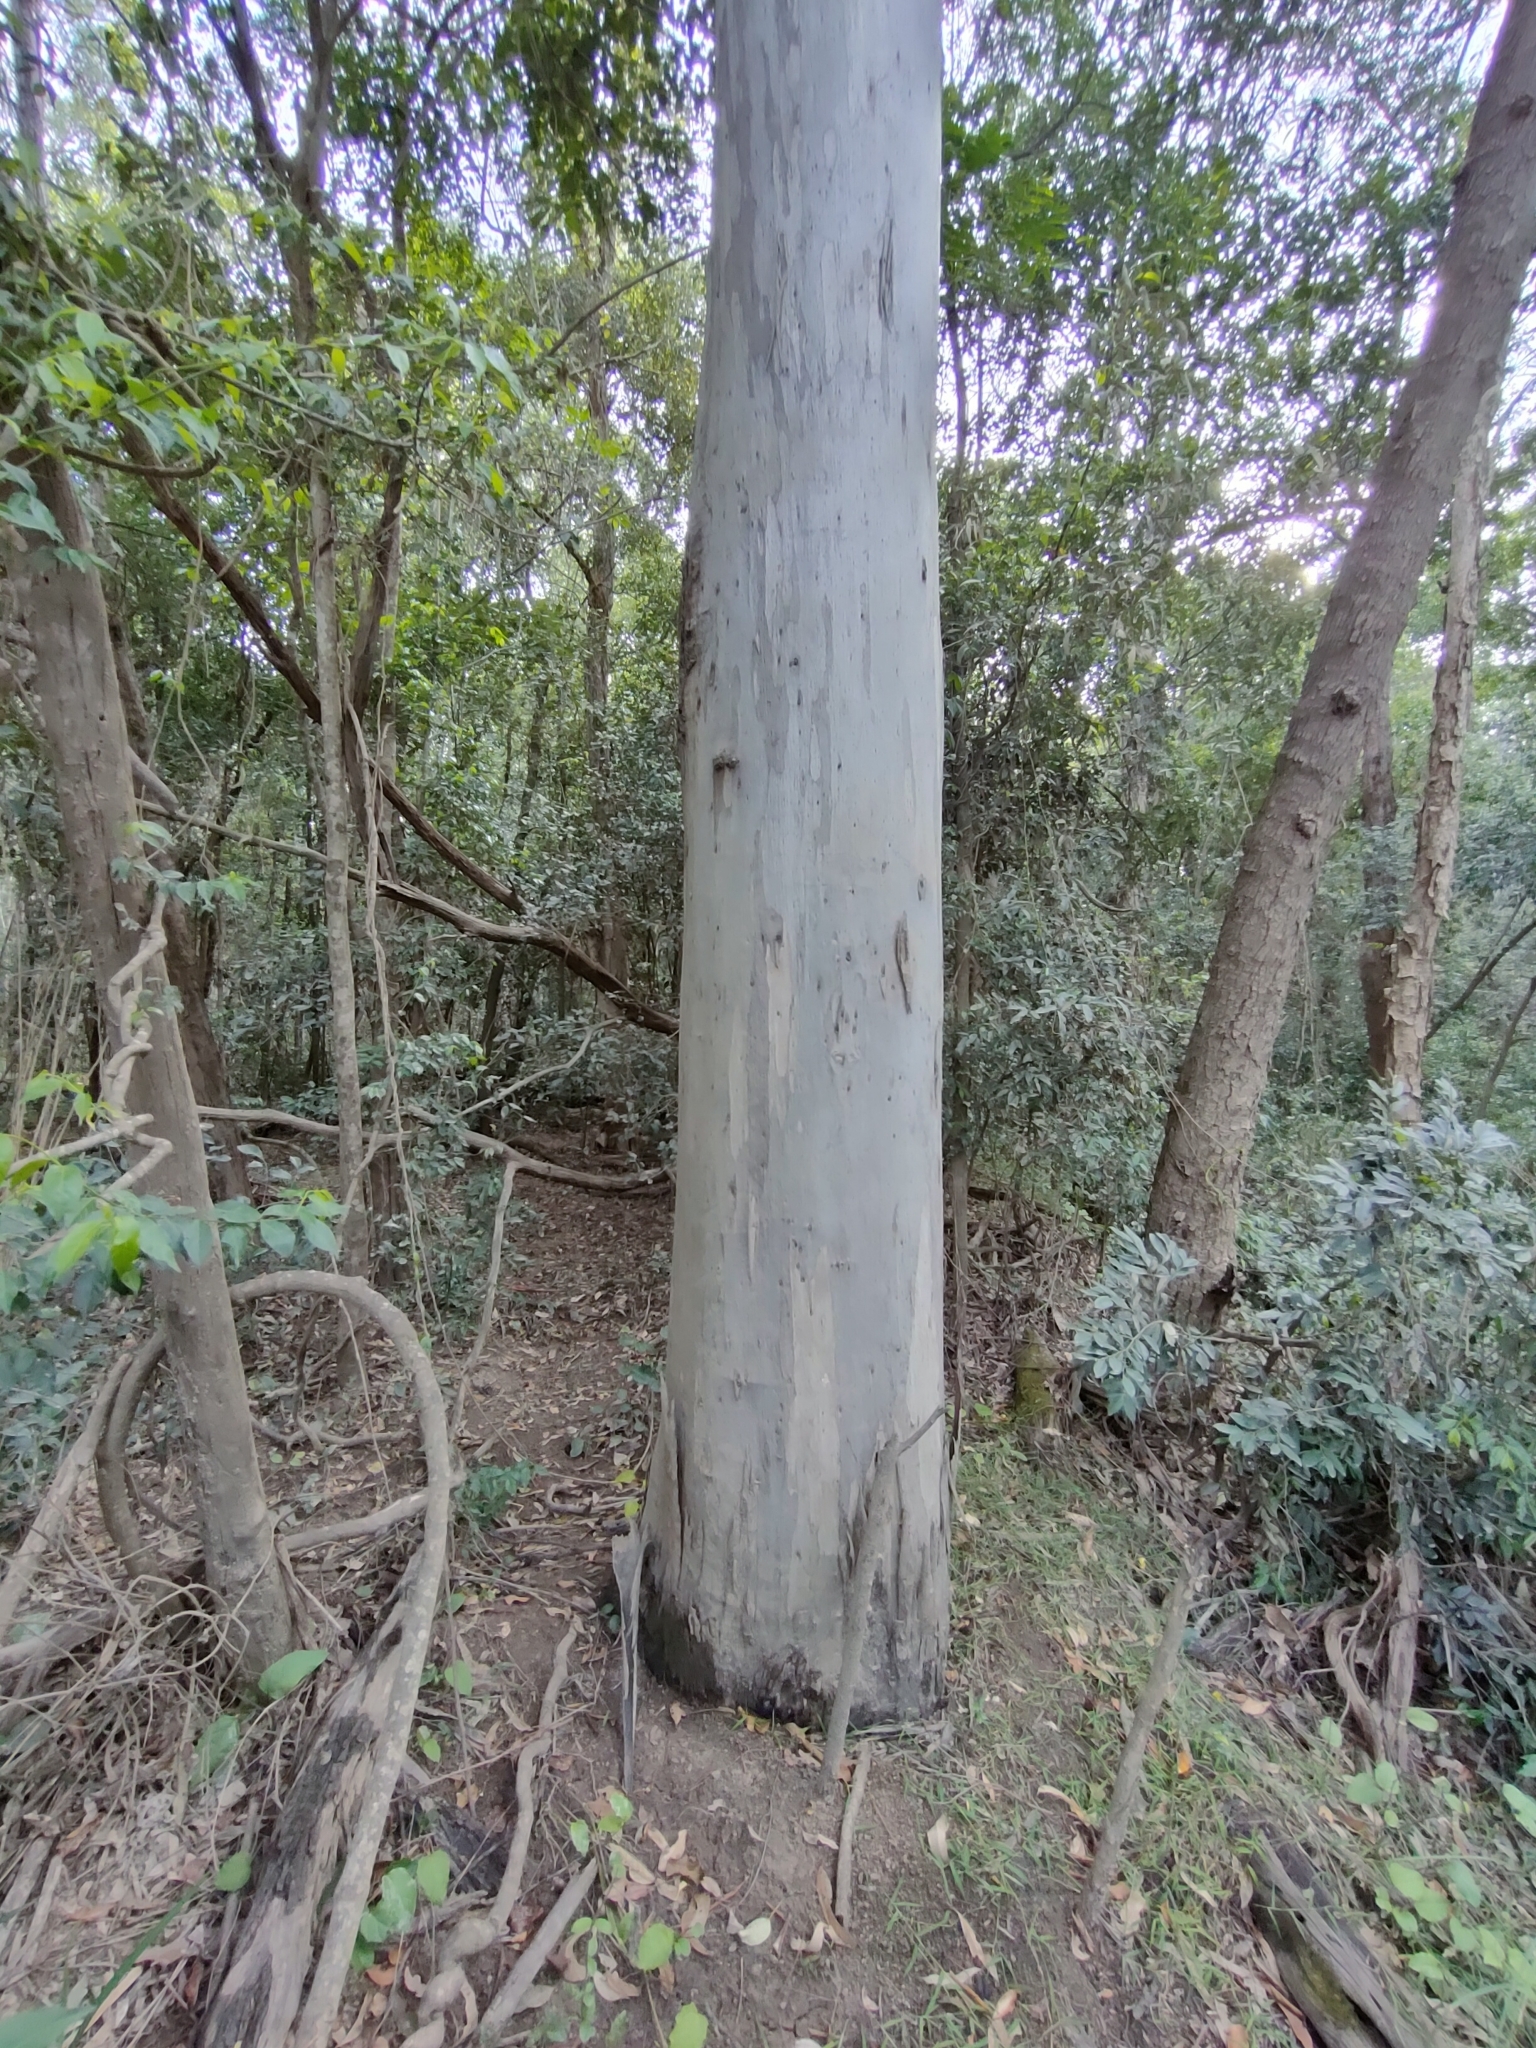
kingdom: Plantae
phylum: Tracheophyta
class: Magnoliopsida
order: Myrtales
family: Myrtaceae
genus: Eucalyptus
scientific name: Eucalyptus tereticornis
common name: Forest redgum
